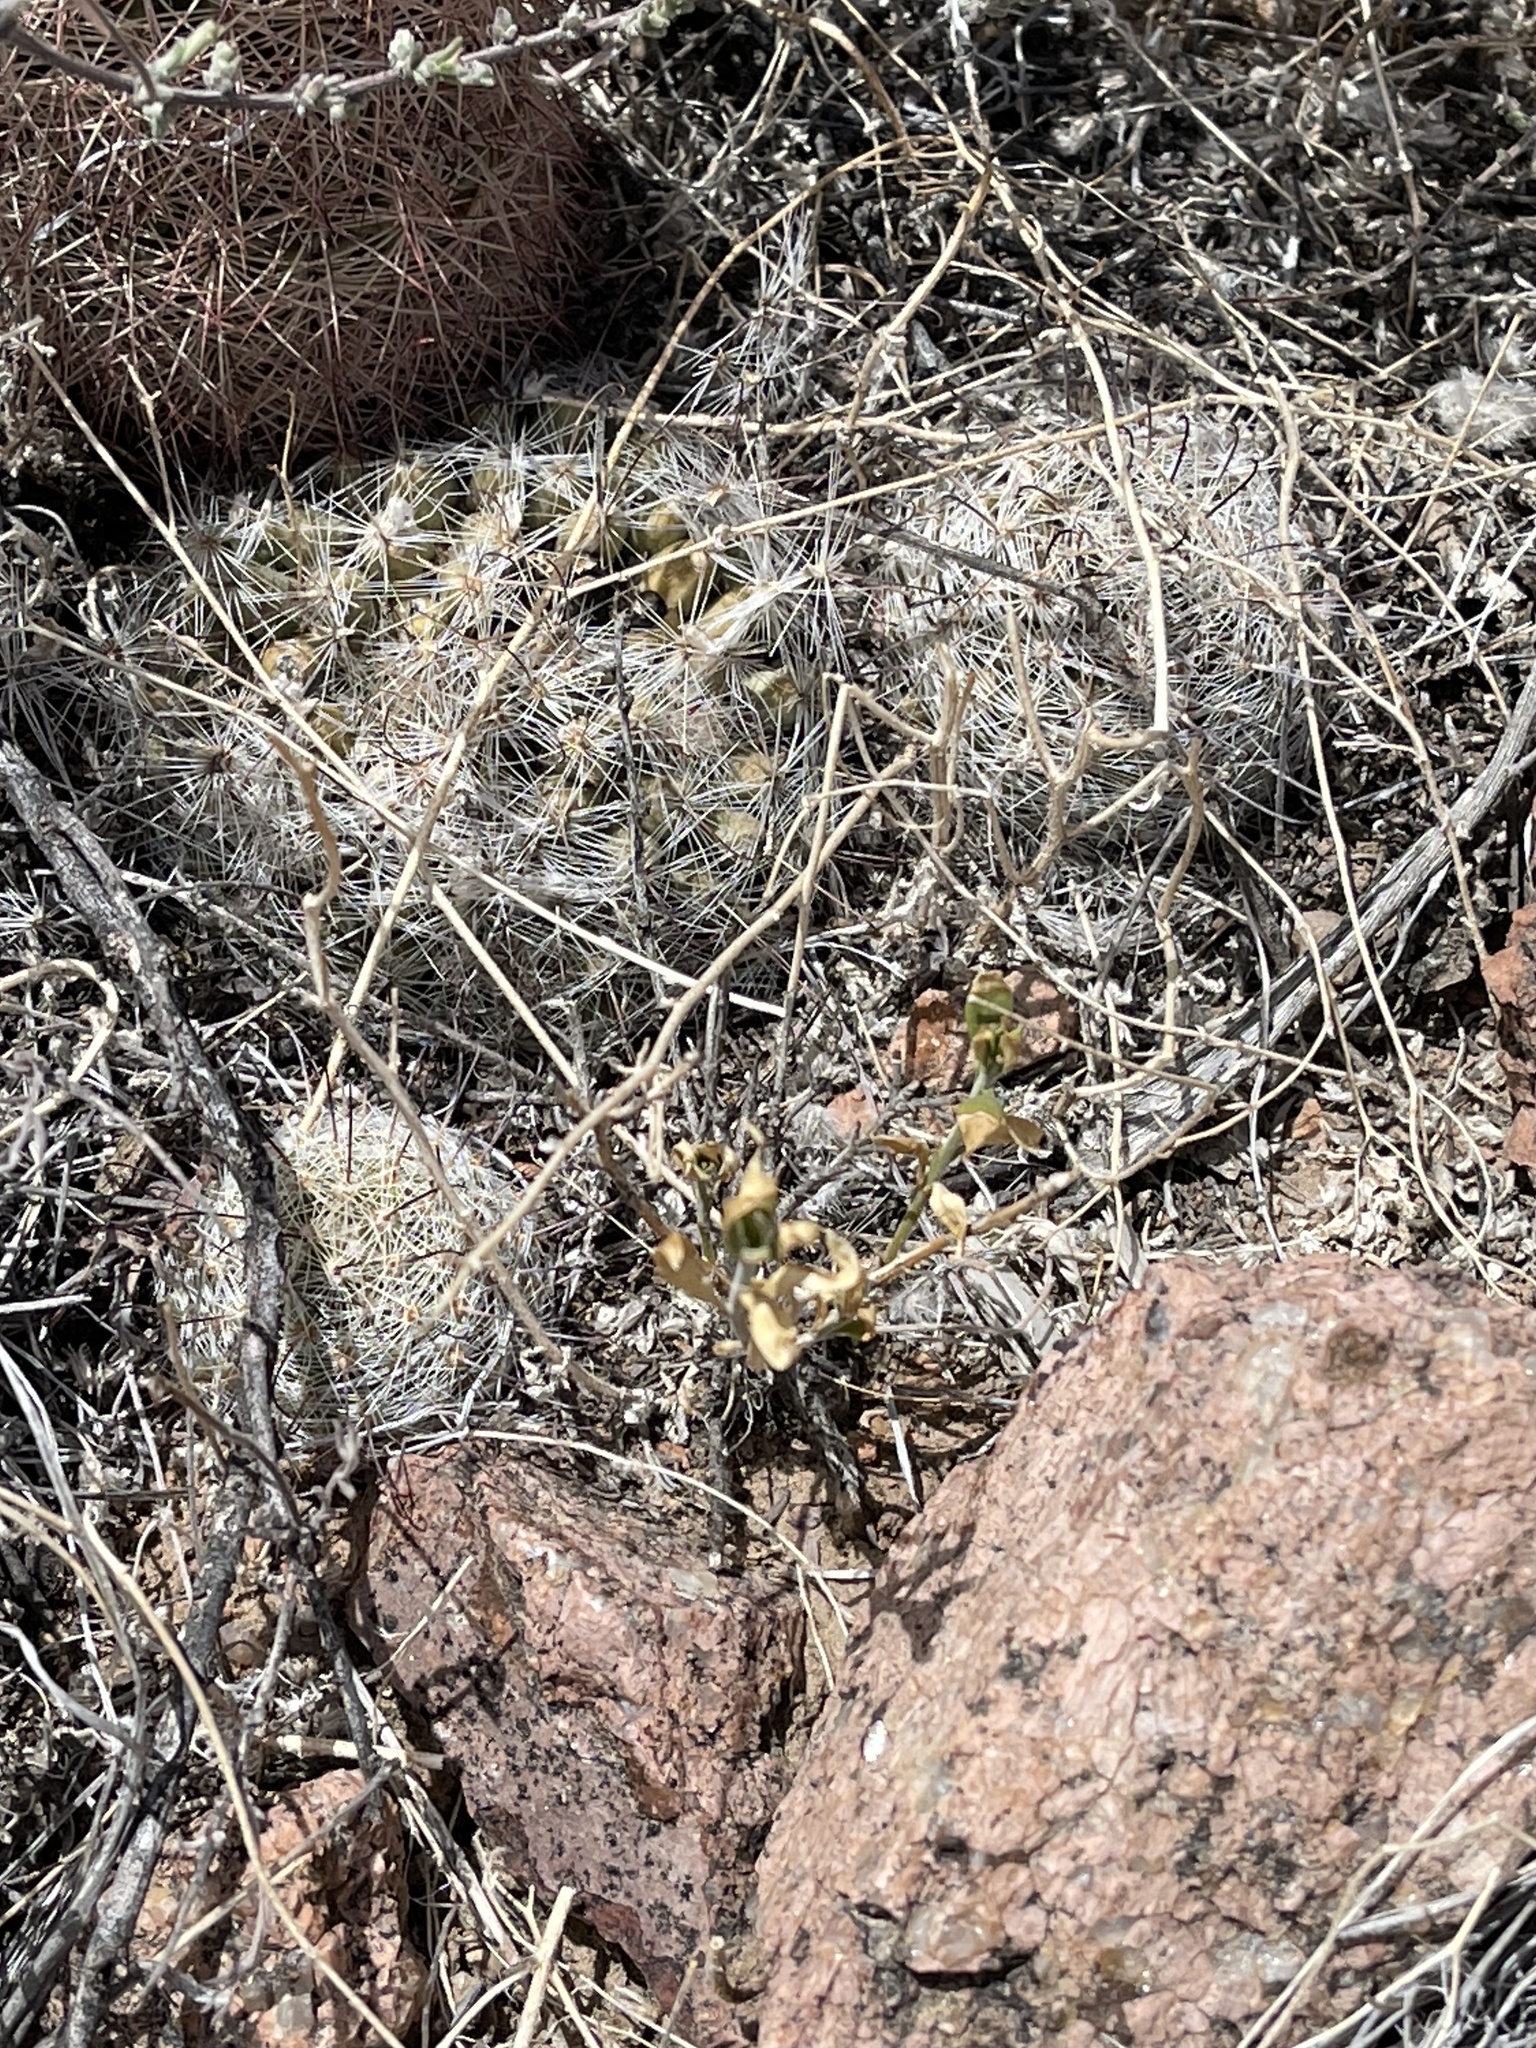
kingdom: Plantae
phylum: Tracheophyta
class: Magnoliopsida
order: Caryophyllales
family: Cactaceae
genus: Cochemiea
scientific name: Cochemiea grahamii
